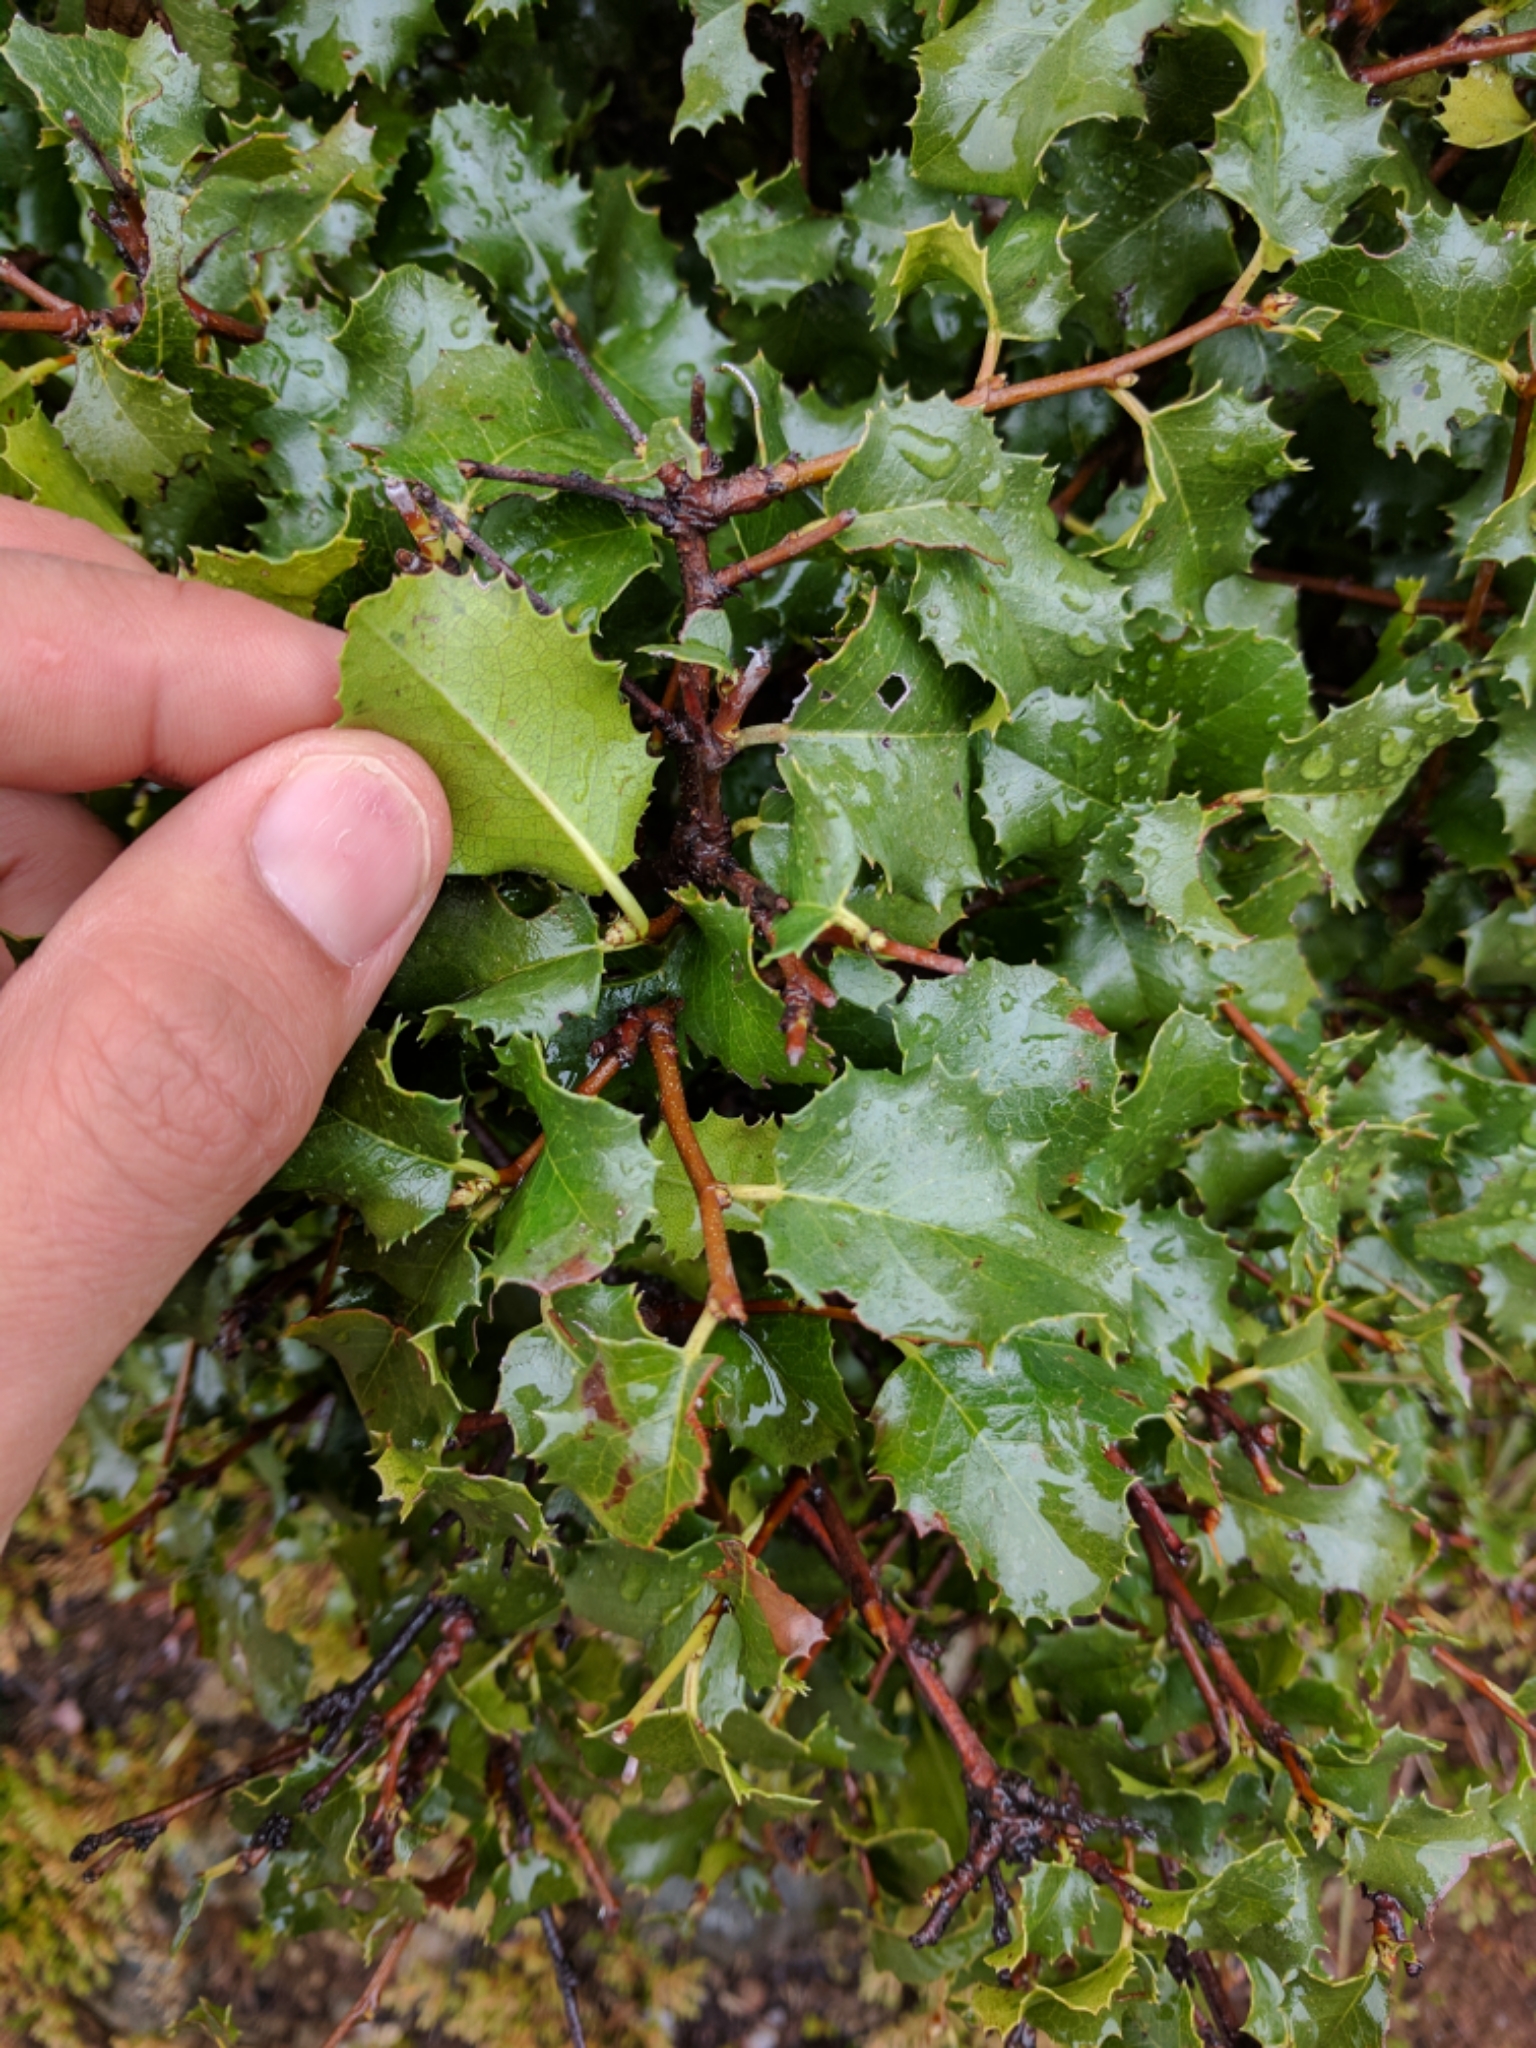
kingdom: Plantae
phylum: Tracheophyta
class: Magnoliopsida
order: Rosales
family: Rosaceae
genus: Prunus
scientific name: Prunus ilicifolia
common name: Hollyleaf cherry
